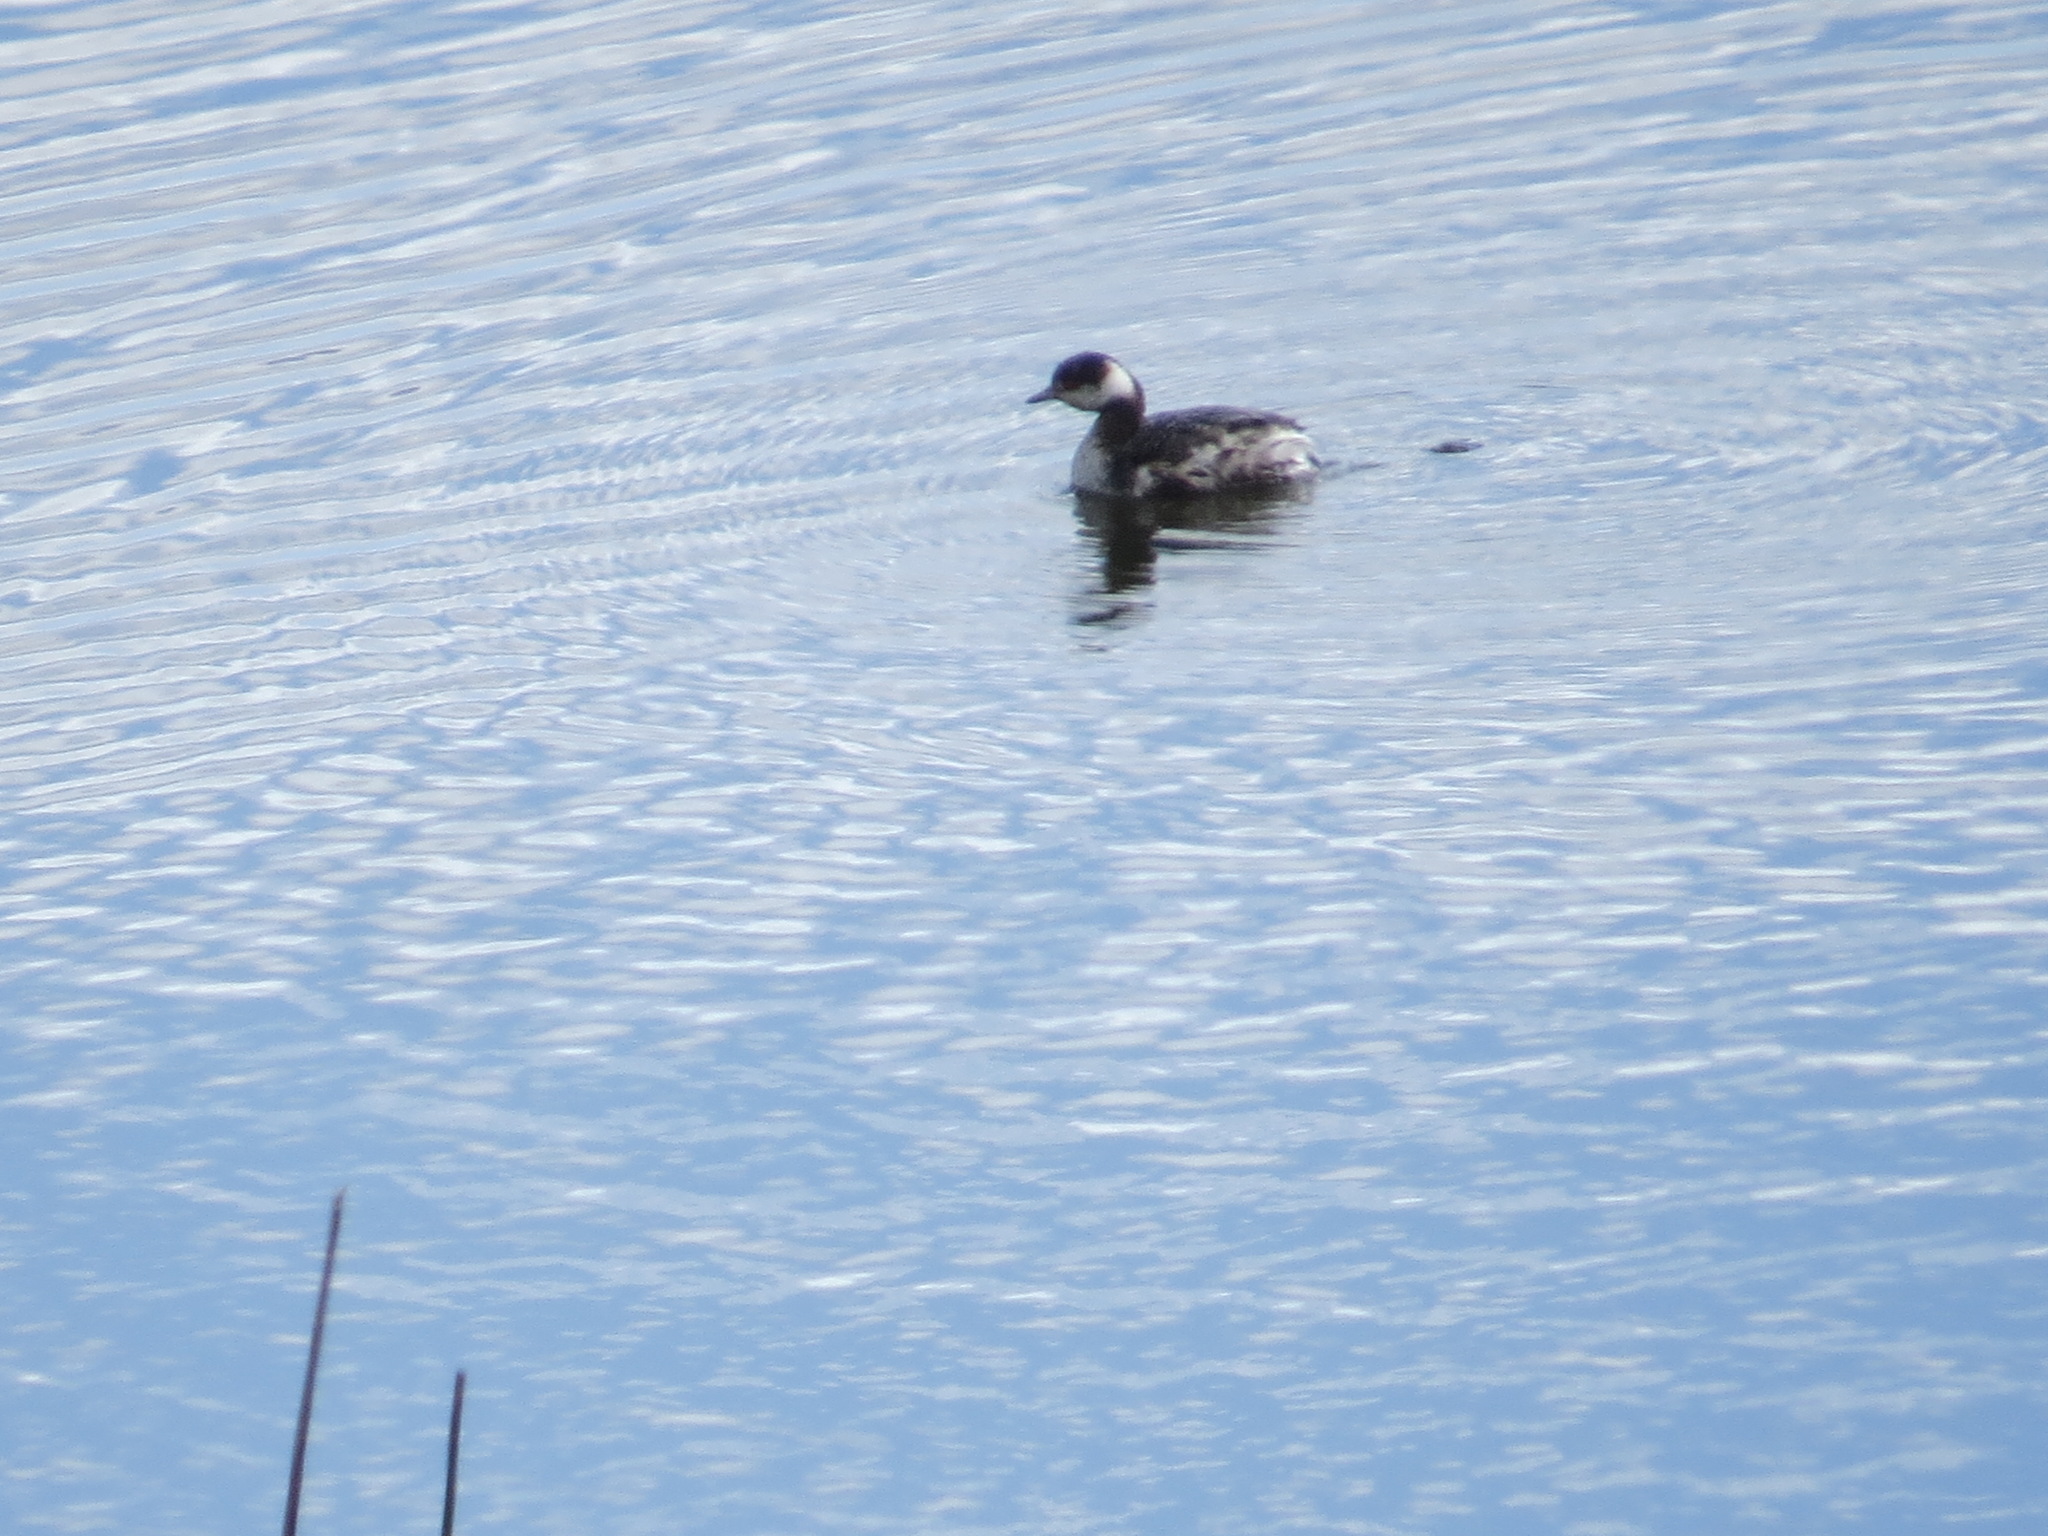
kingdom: Animalia
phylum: Chordata
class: Aves
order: Podicipediformes
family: Podicipedidae
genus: Podiceps
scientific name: Podiceps auritus
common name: Horned grebe
